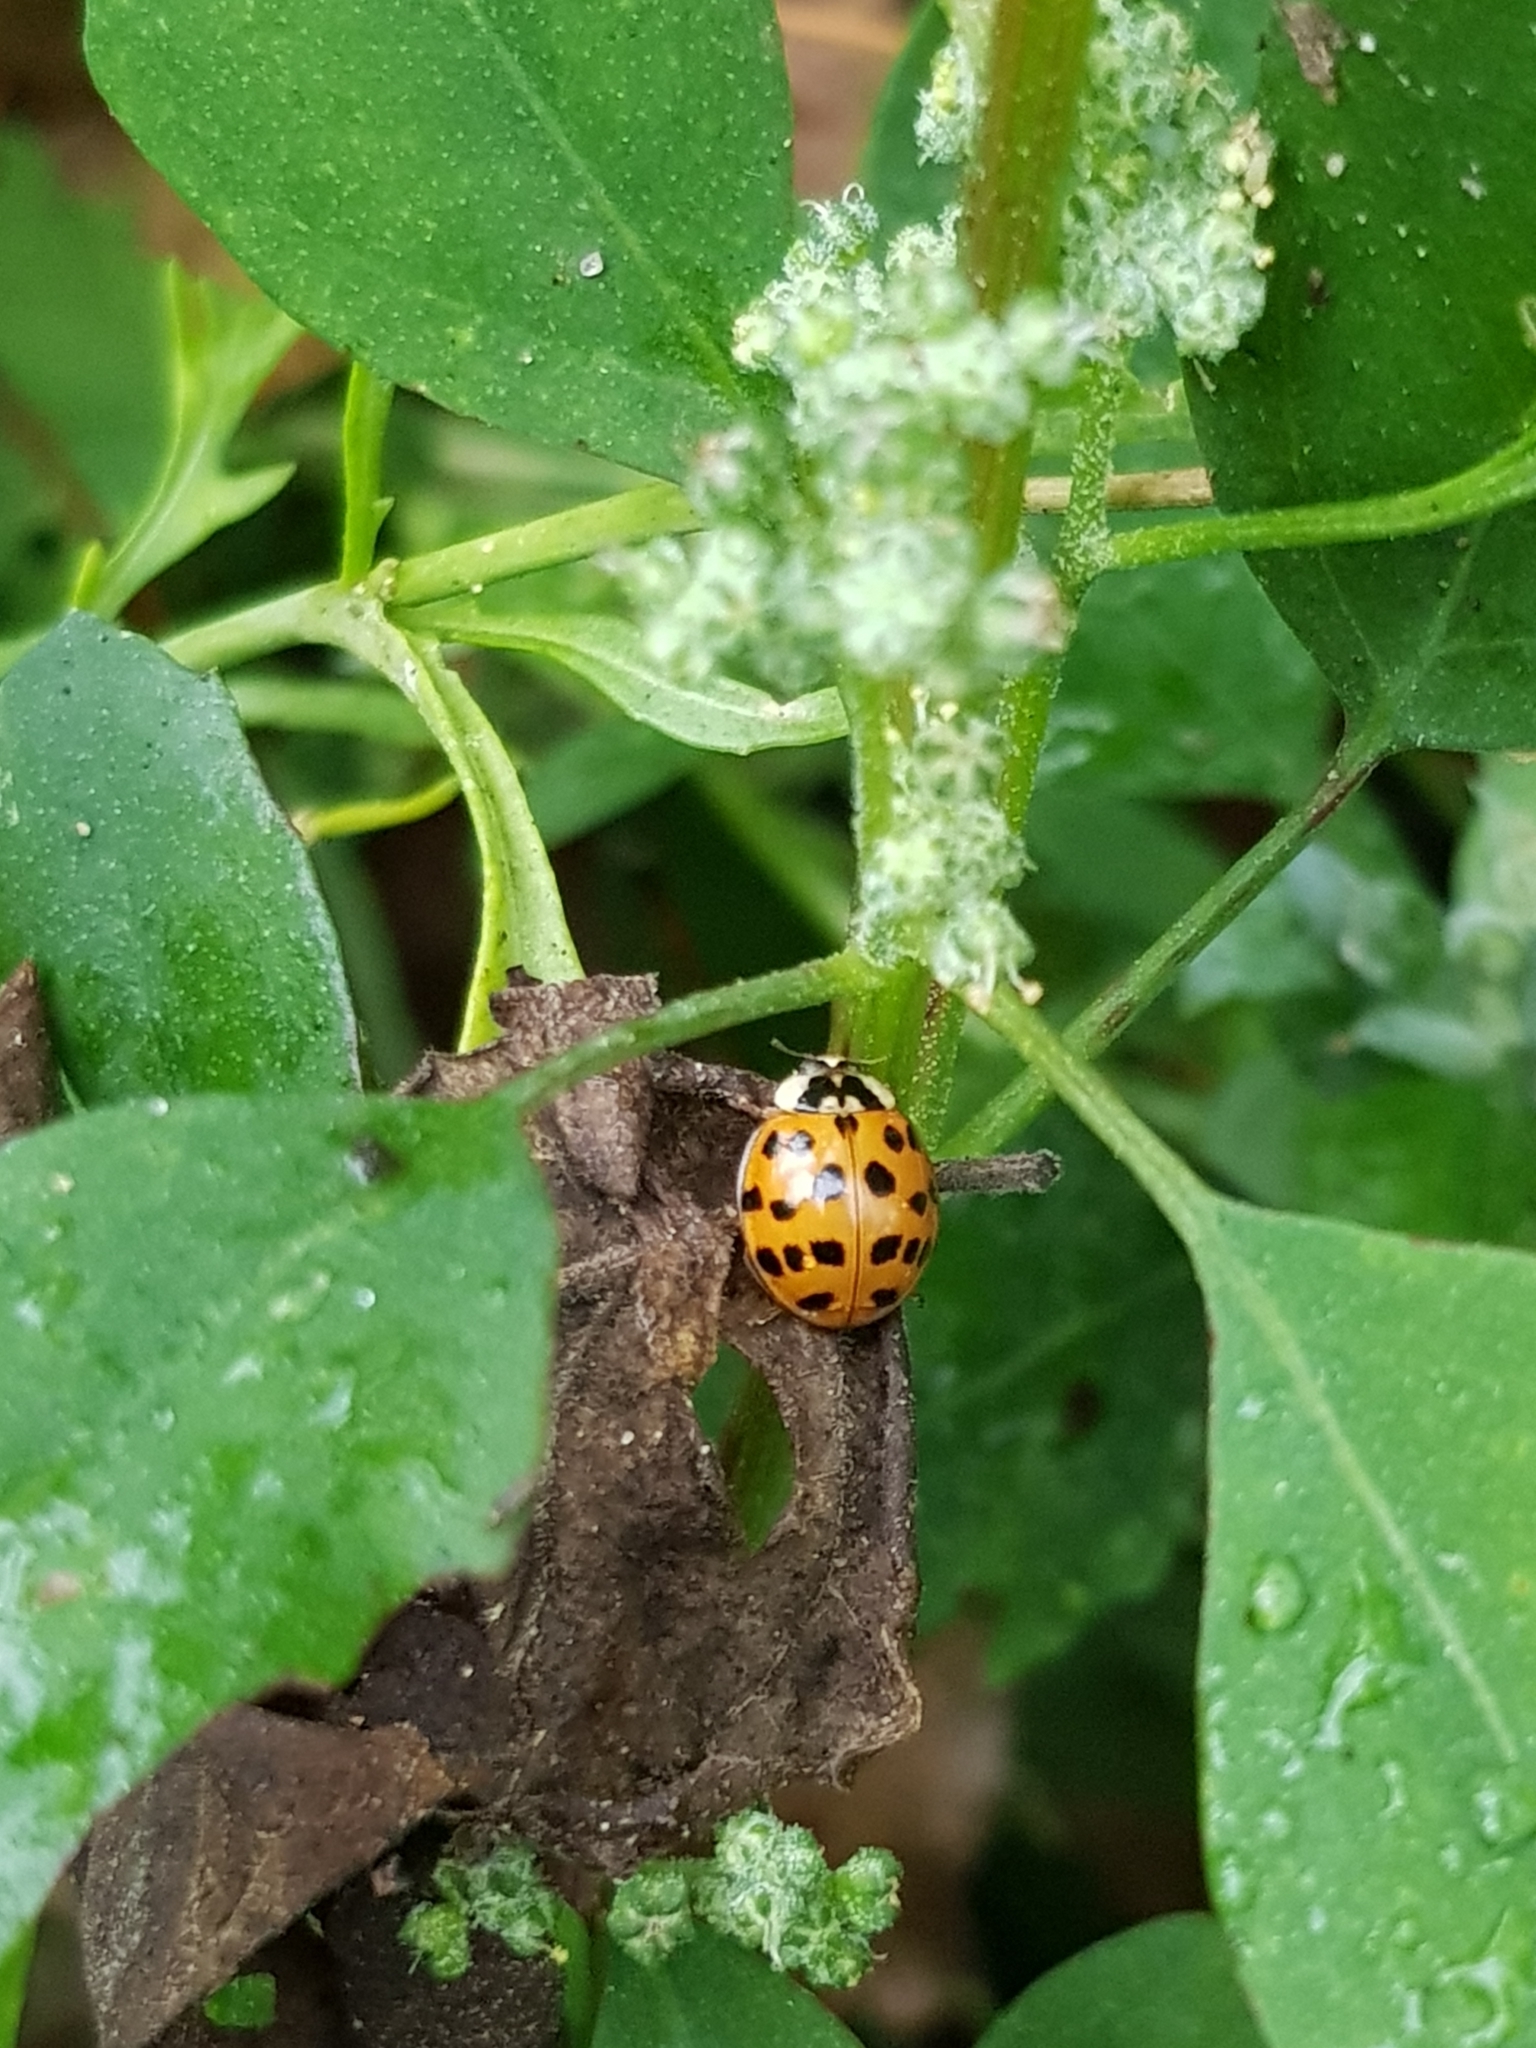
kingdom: Animalia
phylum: Arthropoda
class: Insecta
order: Coleoptera
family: Coccinellidae
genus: Harmonia
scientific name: Harmonia axyridis
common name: Harlequin ladybird
